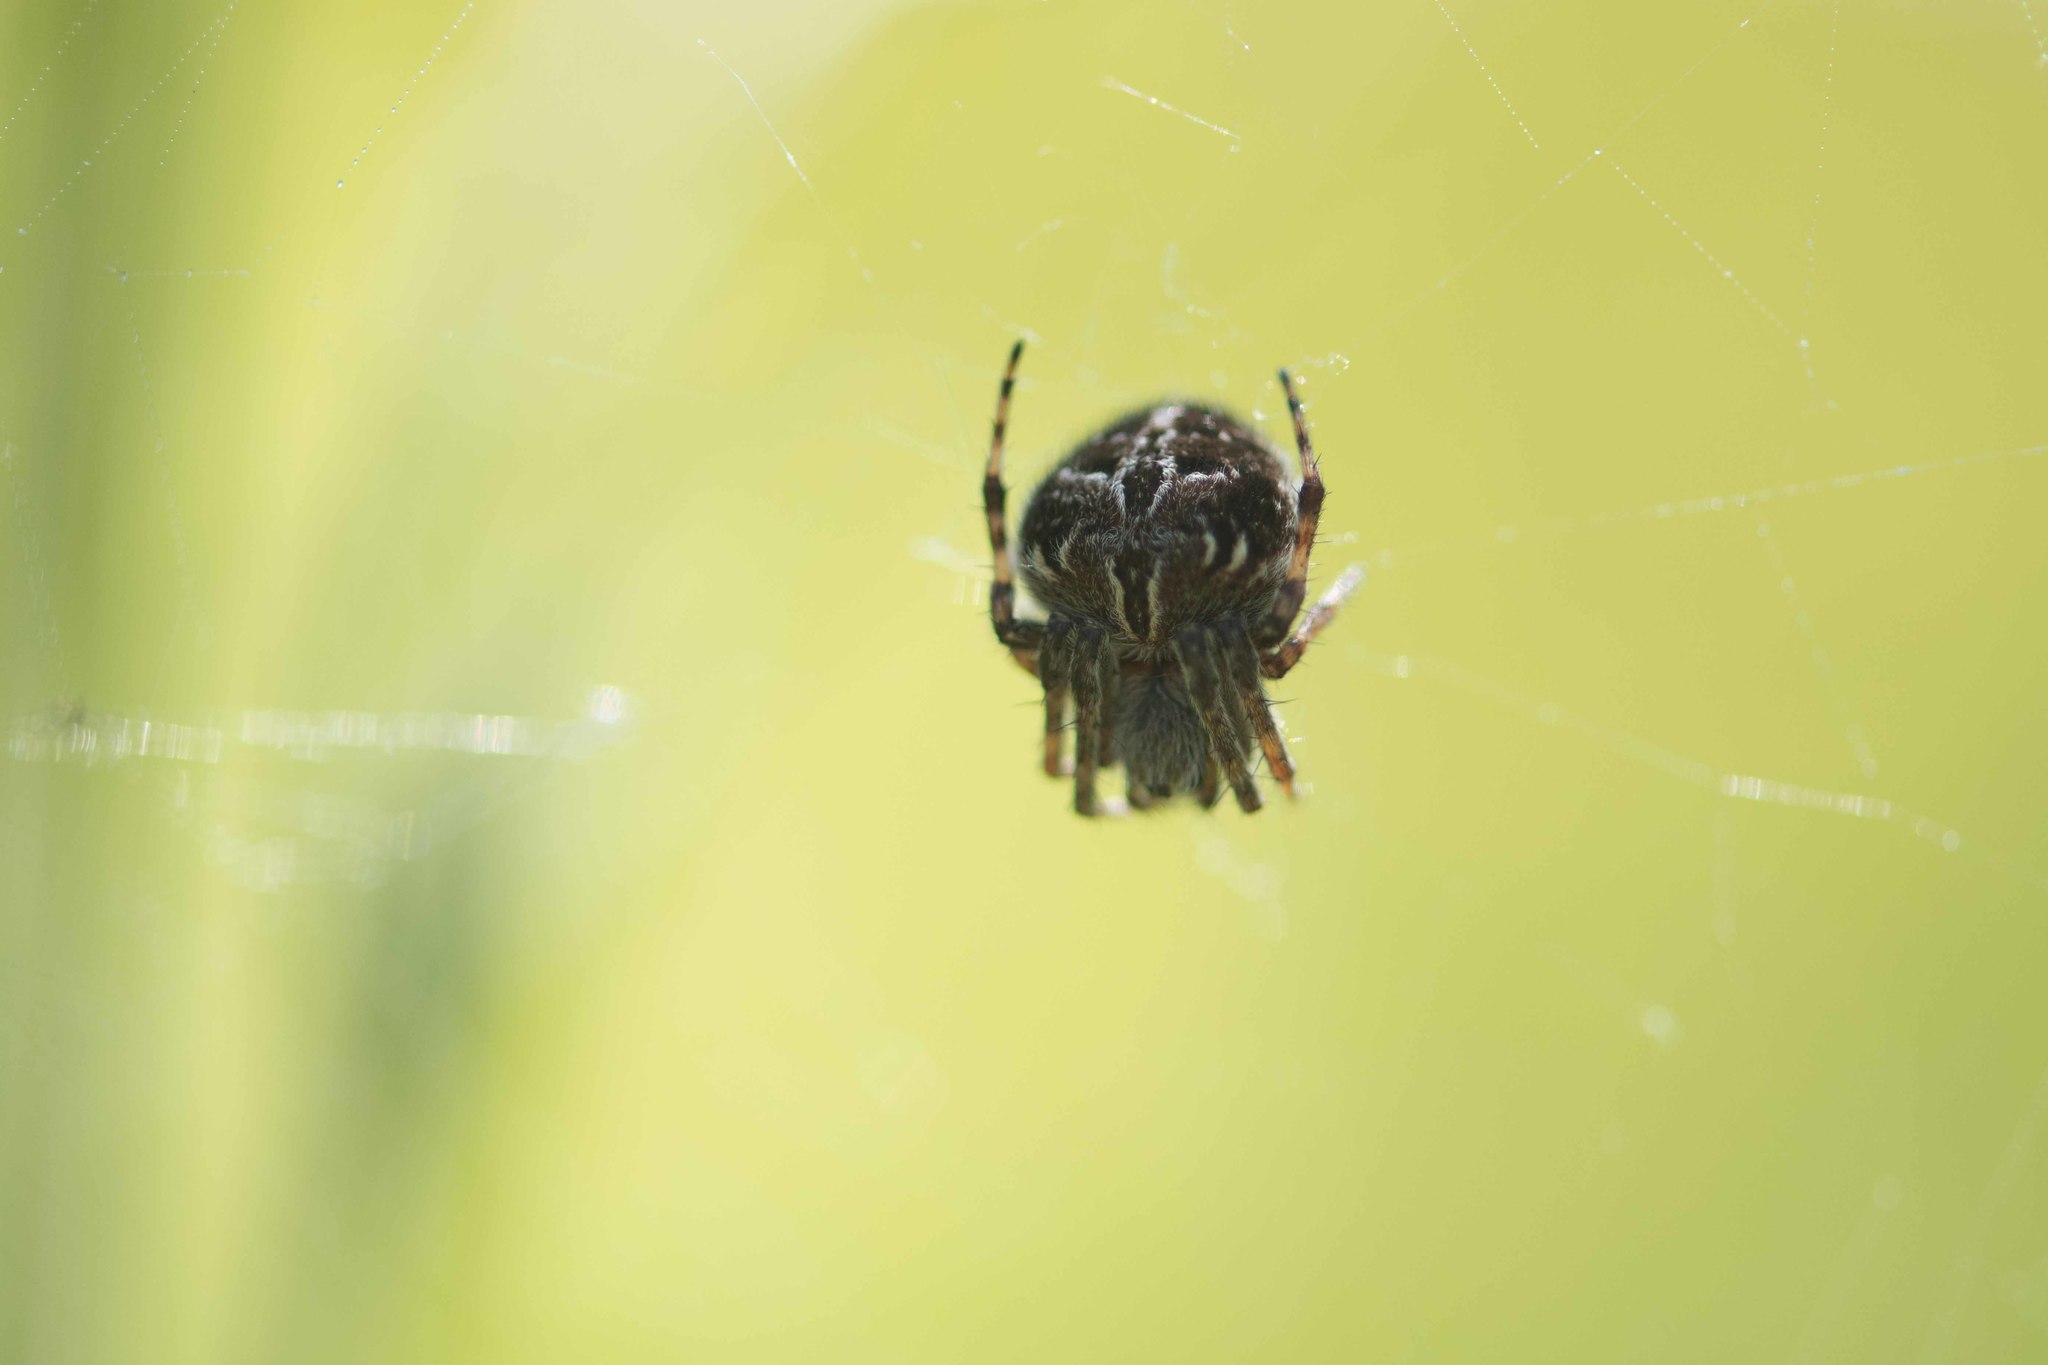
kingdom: Animalia
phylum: Arthropoda
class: Arachnida
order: Araneae
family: Araneidae
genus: Agalenatea
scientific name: Agalenatea redii
